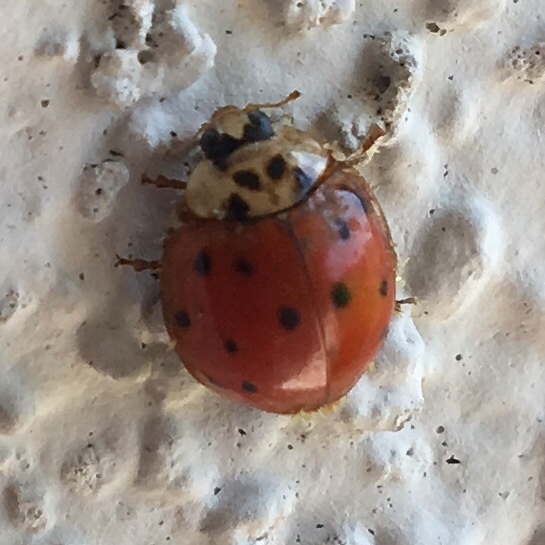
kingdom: Animalia
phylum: Arthropoda
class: Insecta
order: Coleoptera
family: Coccinellidae
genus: Harmonia
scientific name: Harmonia axyridis
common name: Harlequin ladybird
